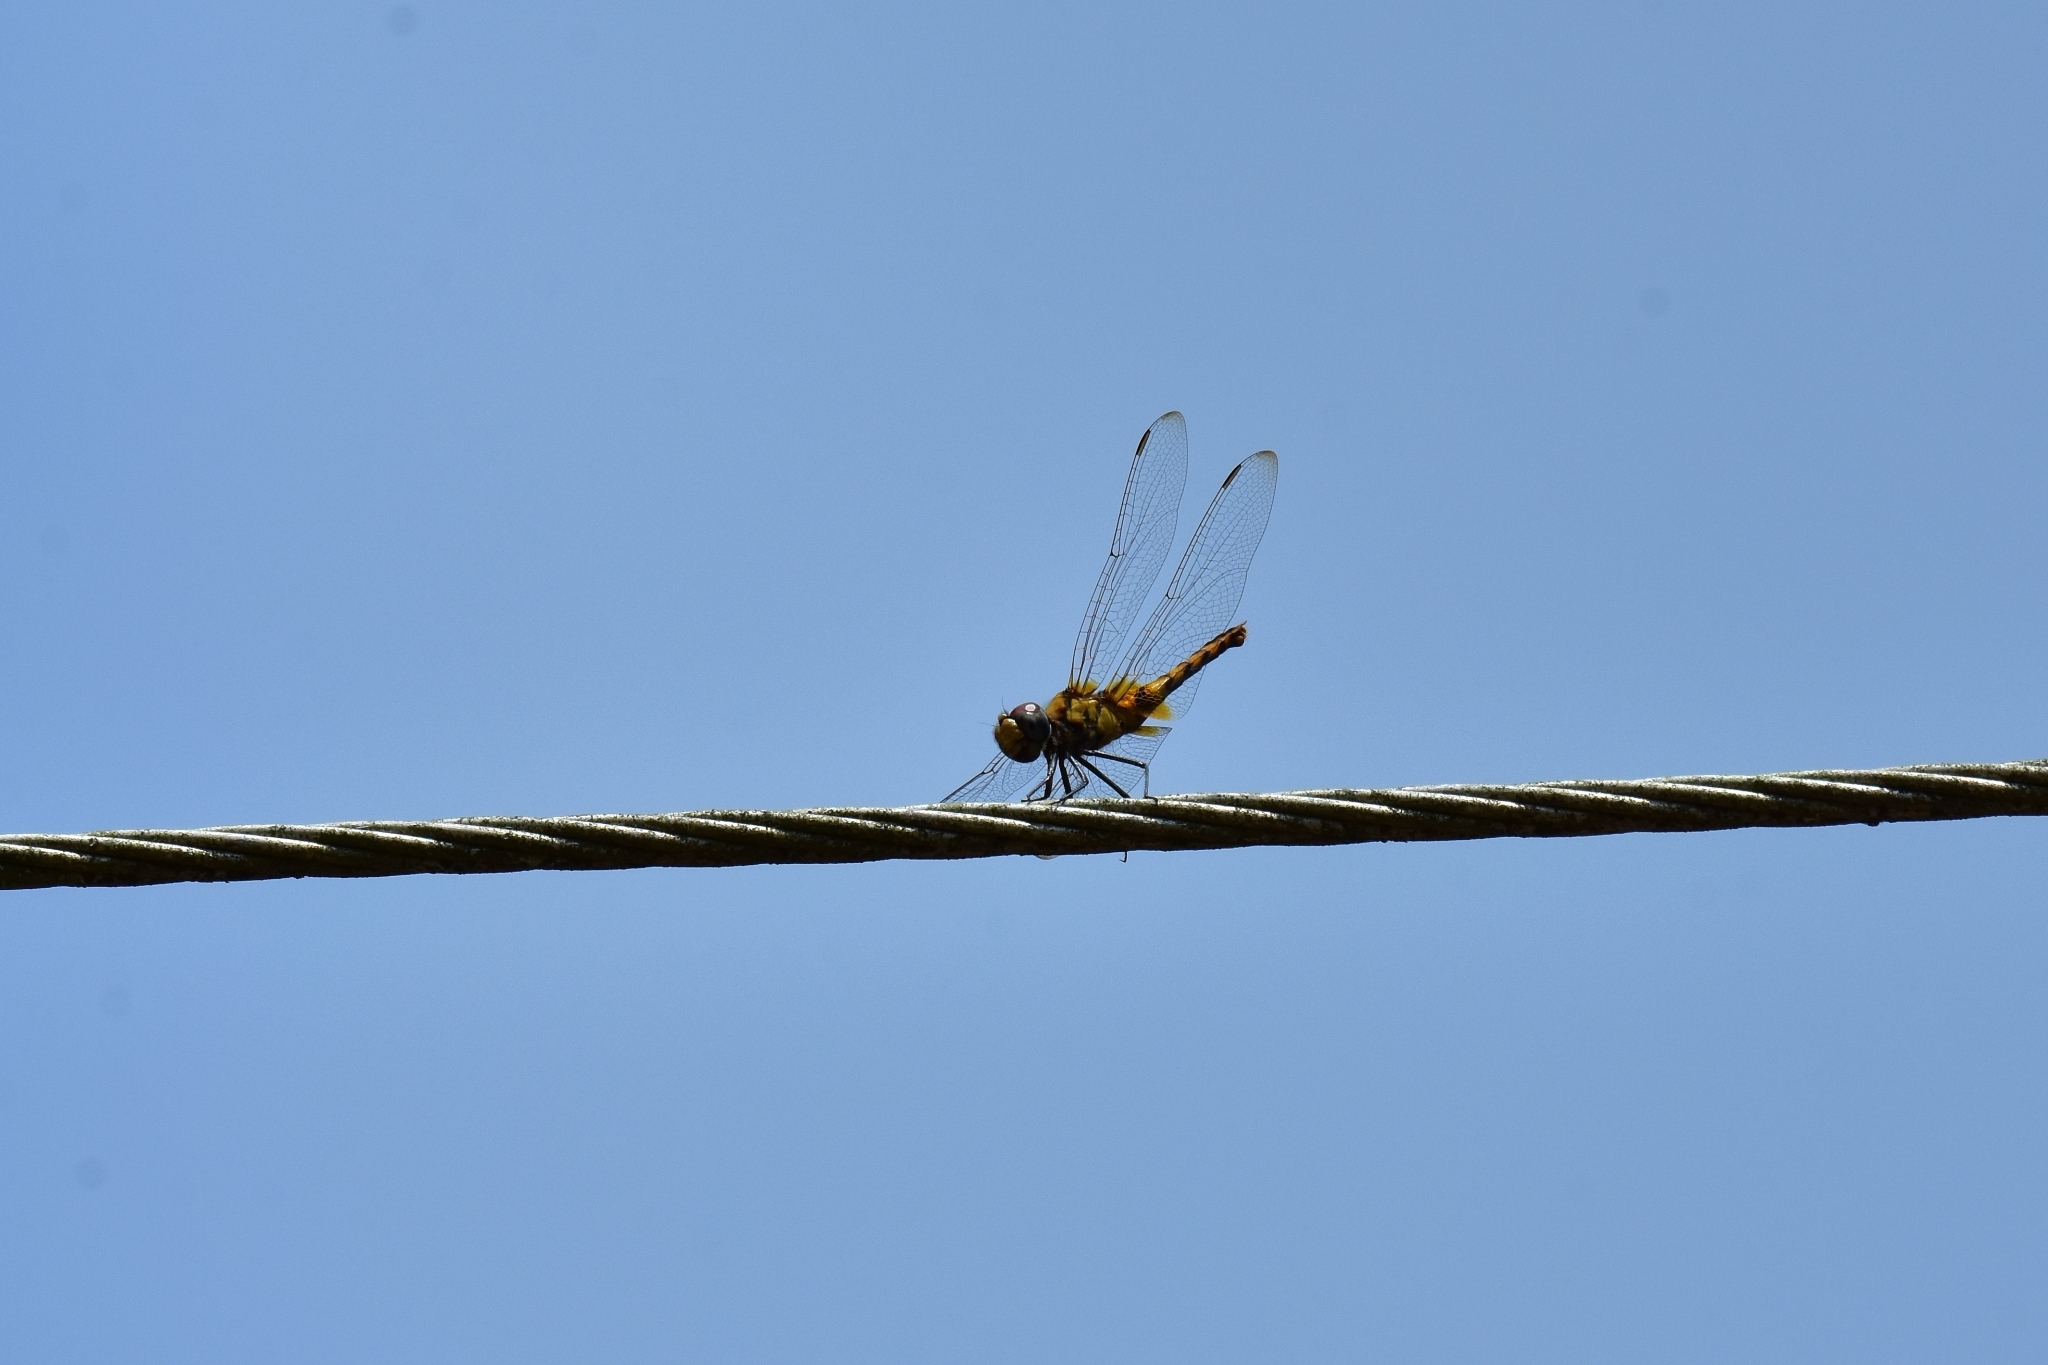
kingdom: Animalia
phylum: Arthropoda
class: Insecta
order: Odonata
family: Libellulidae
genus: Urothemis
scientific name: Urothemis signata
